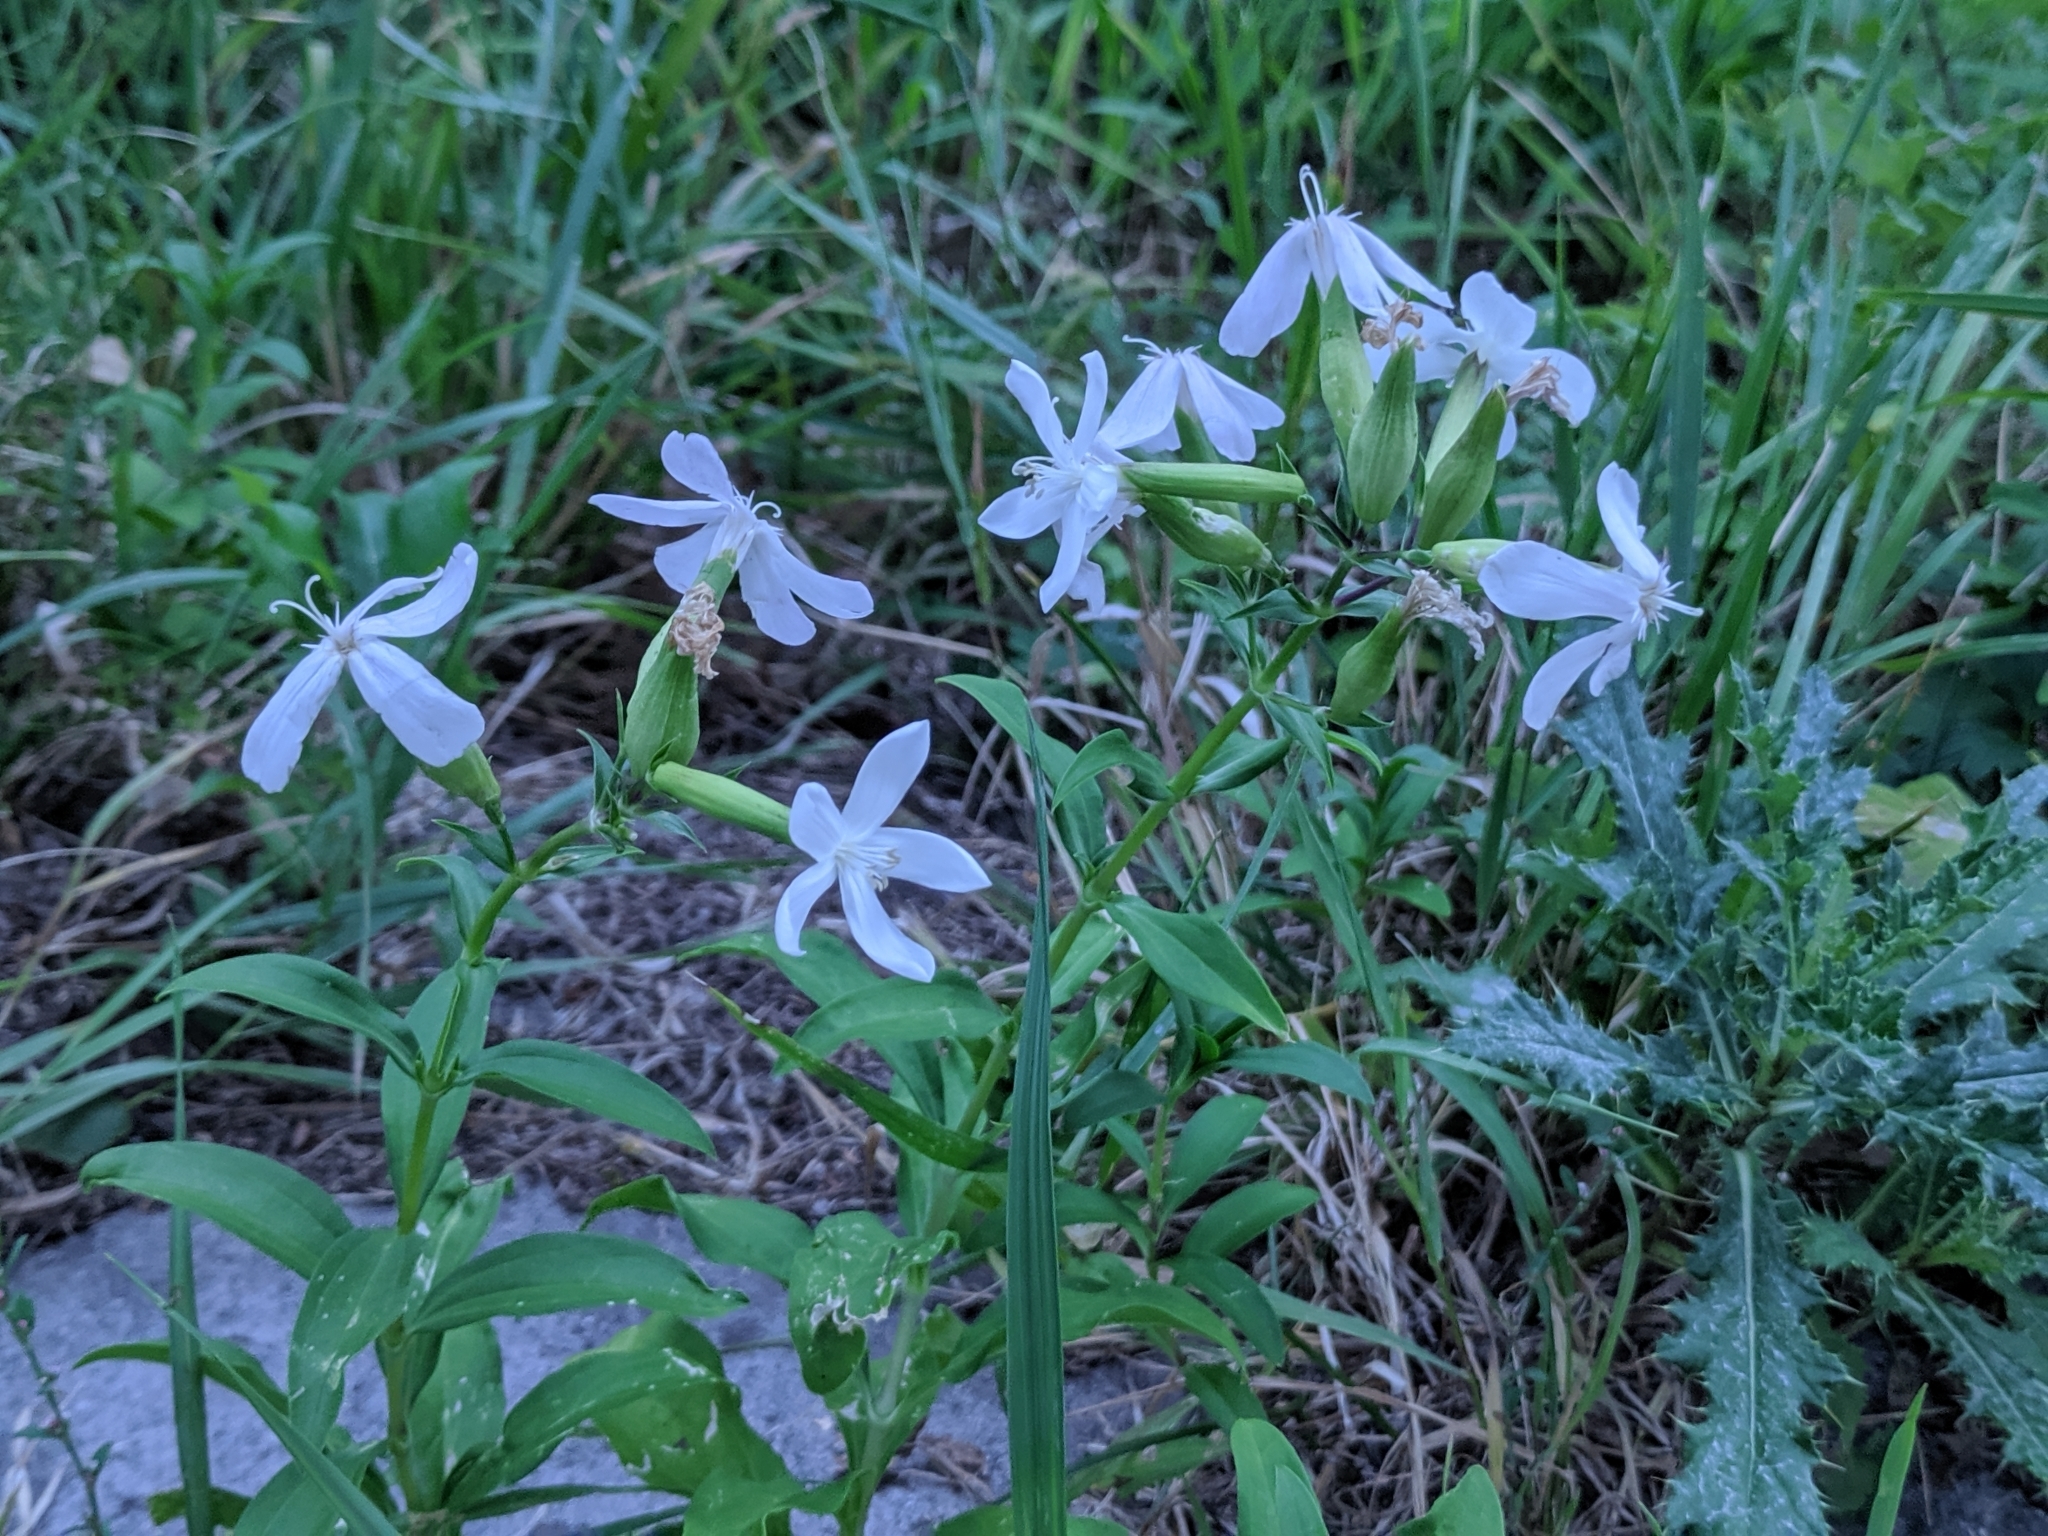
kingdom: Plantae
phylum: Tracheophyta
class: Magnoliopsida
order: Caryophyllales
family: Caryophyllaceae
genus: Saponaria
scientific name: Saponaria officinalis
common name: Soapwort
